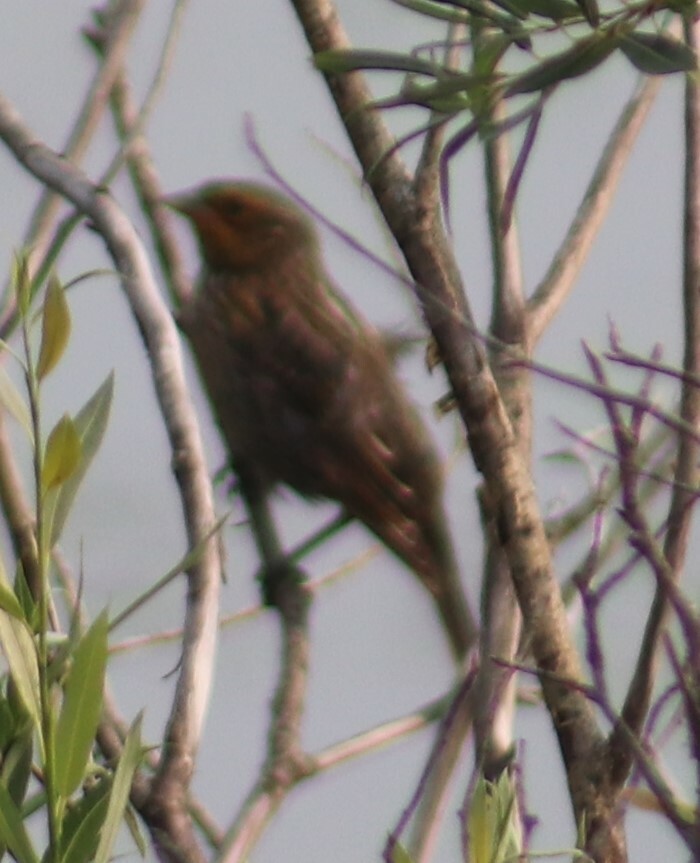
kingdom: Animalia
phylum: Chordata
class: Aves
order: Passeriformes
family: Icteridae
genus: Agelaius
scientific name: Agelaius phoeniceus
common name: Red-winged blackbird
